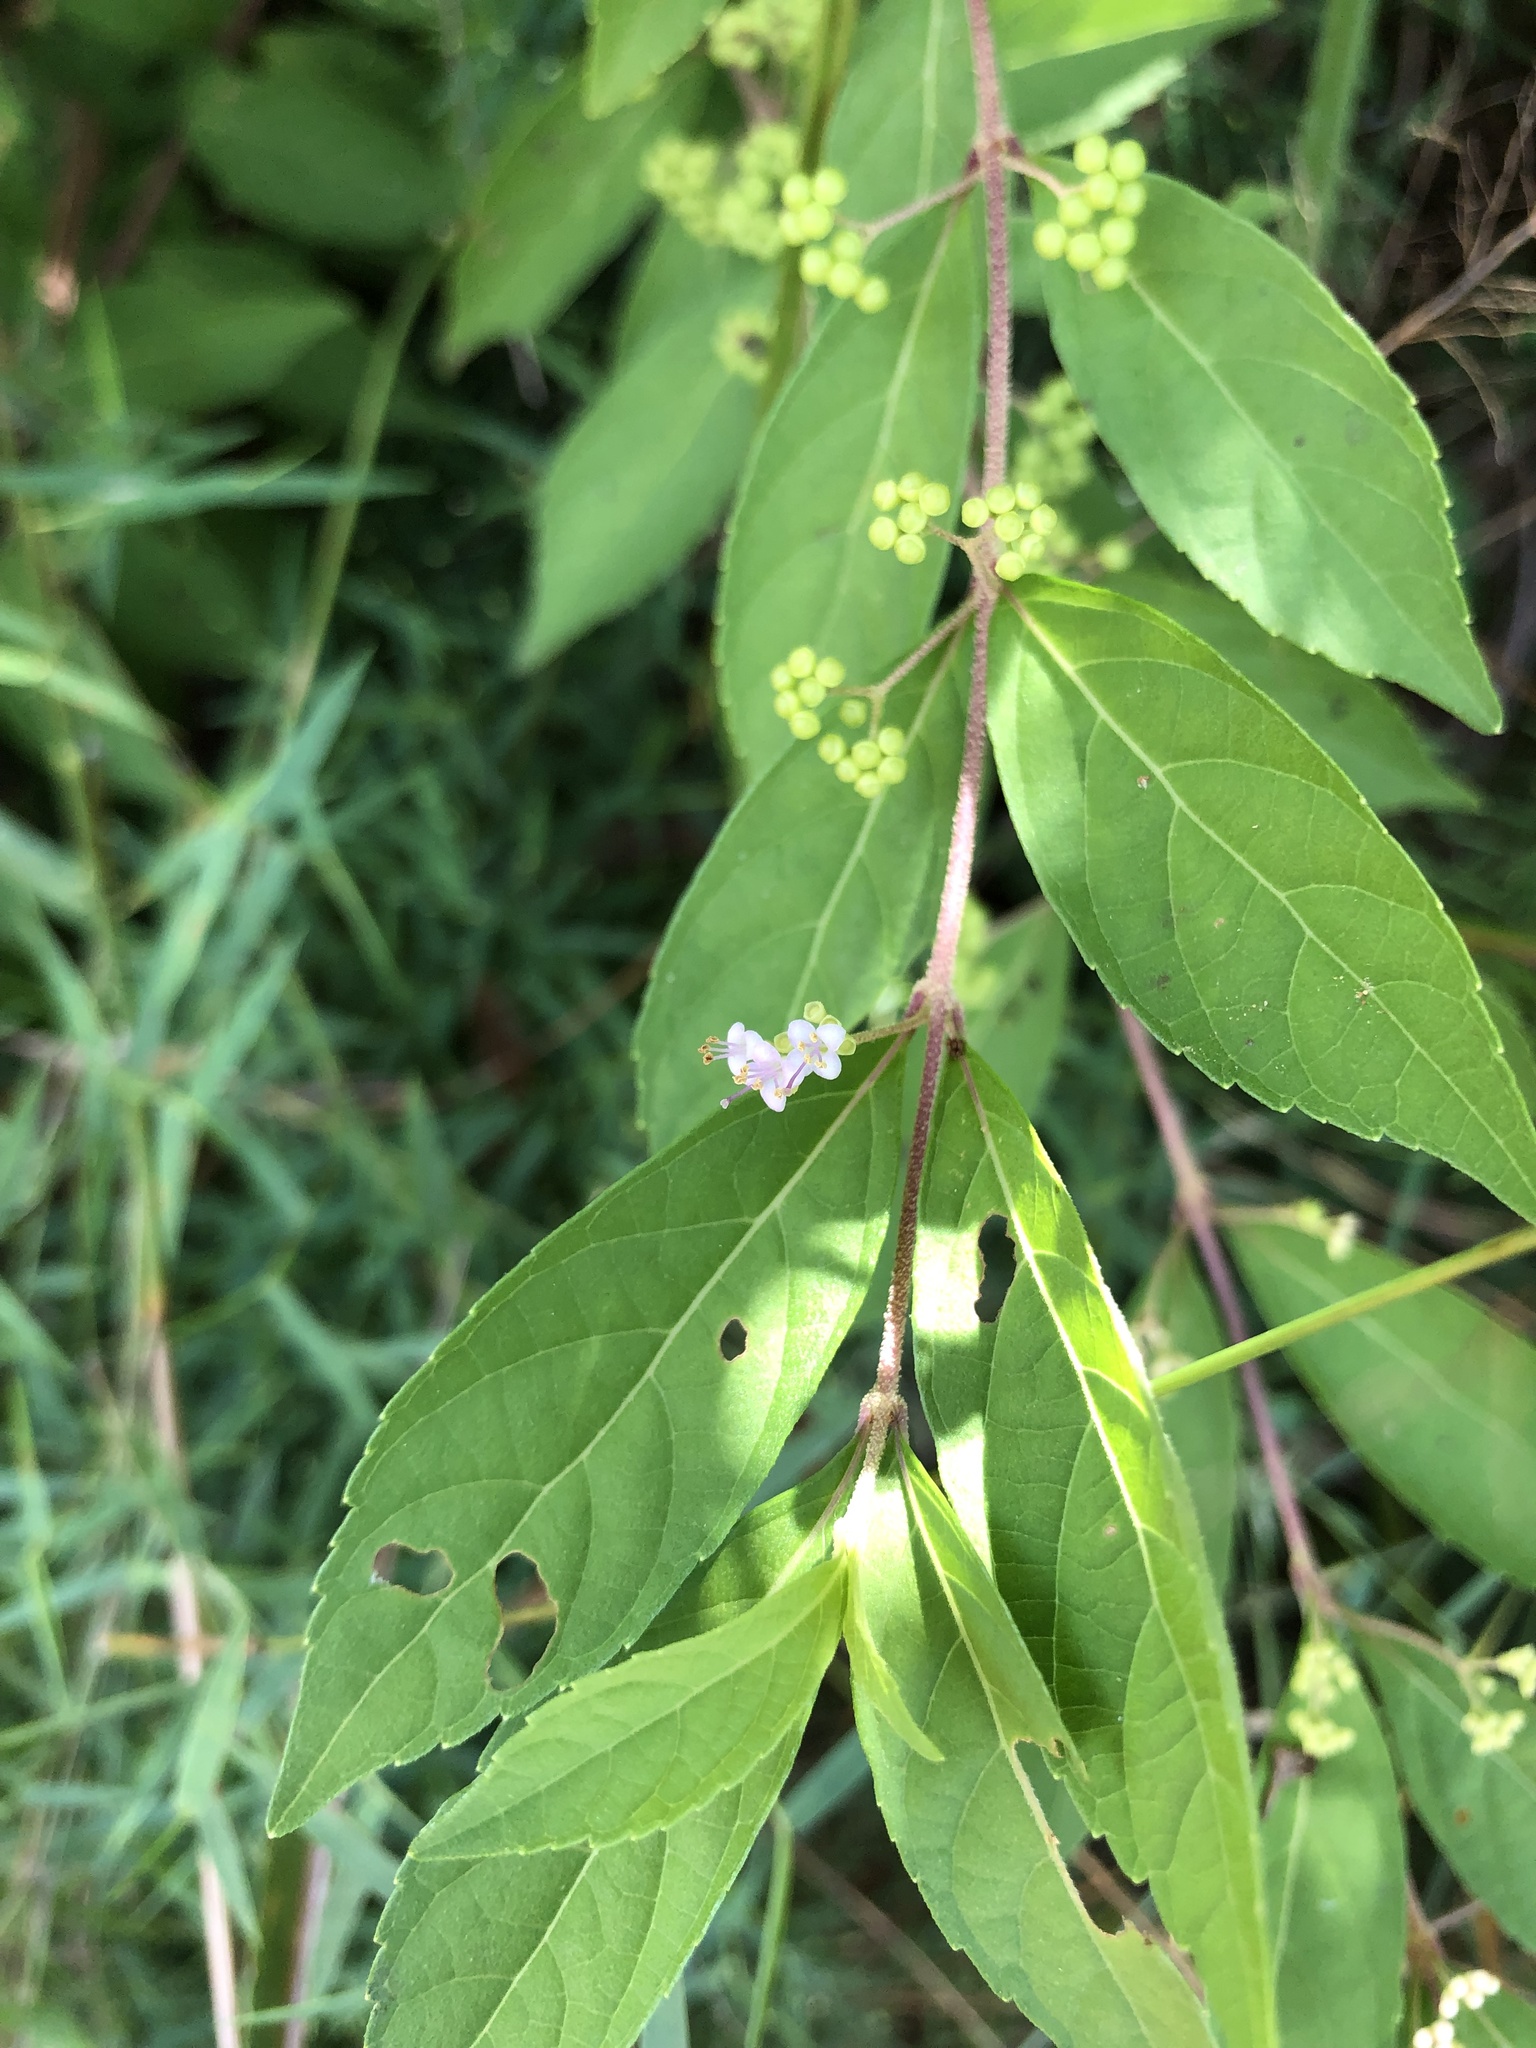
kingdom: Plantae
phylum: Tracheophyta
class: Magnoliopsida
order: Lamiales
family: Lamiaceae
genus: Callicarpa
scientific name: Callicarpa dichotoma
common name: Purple beauty-berry
